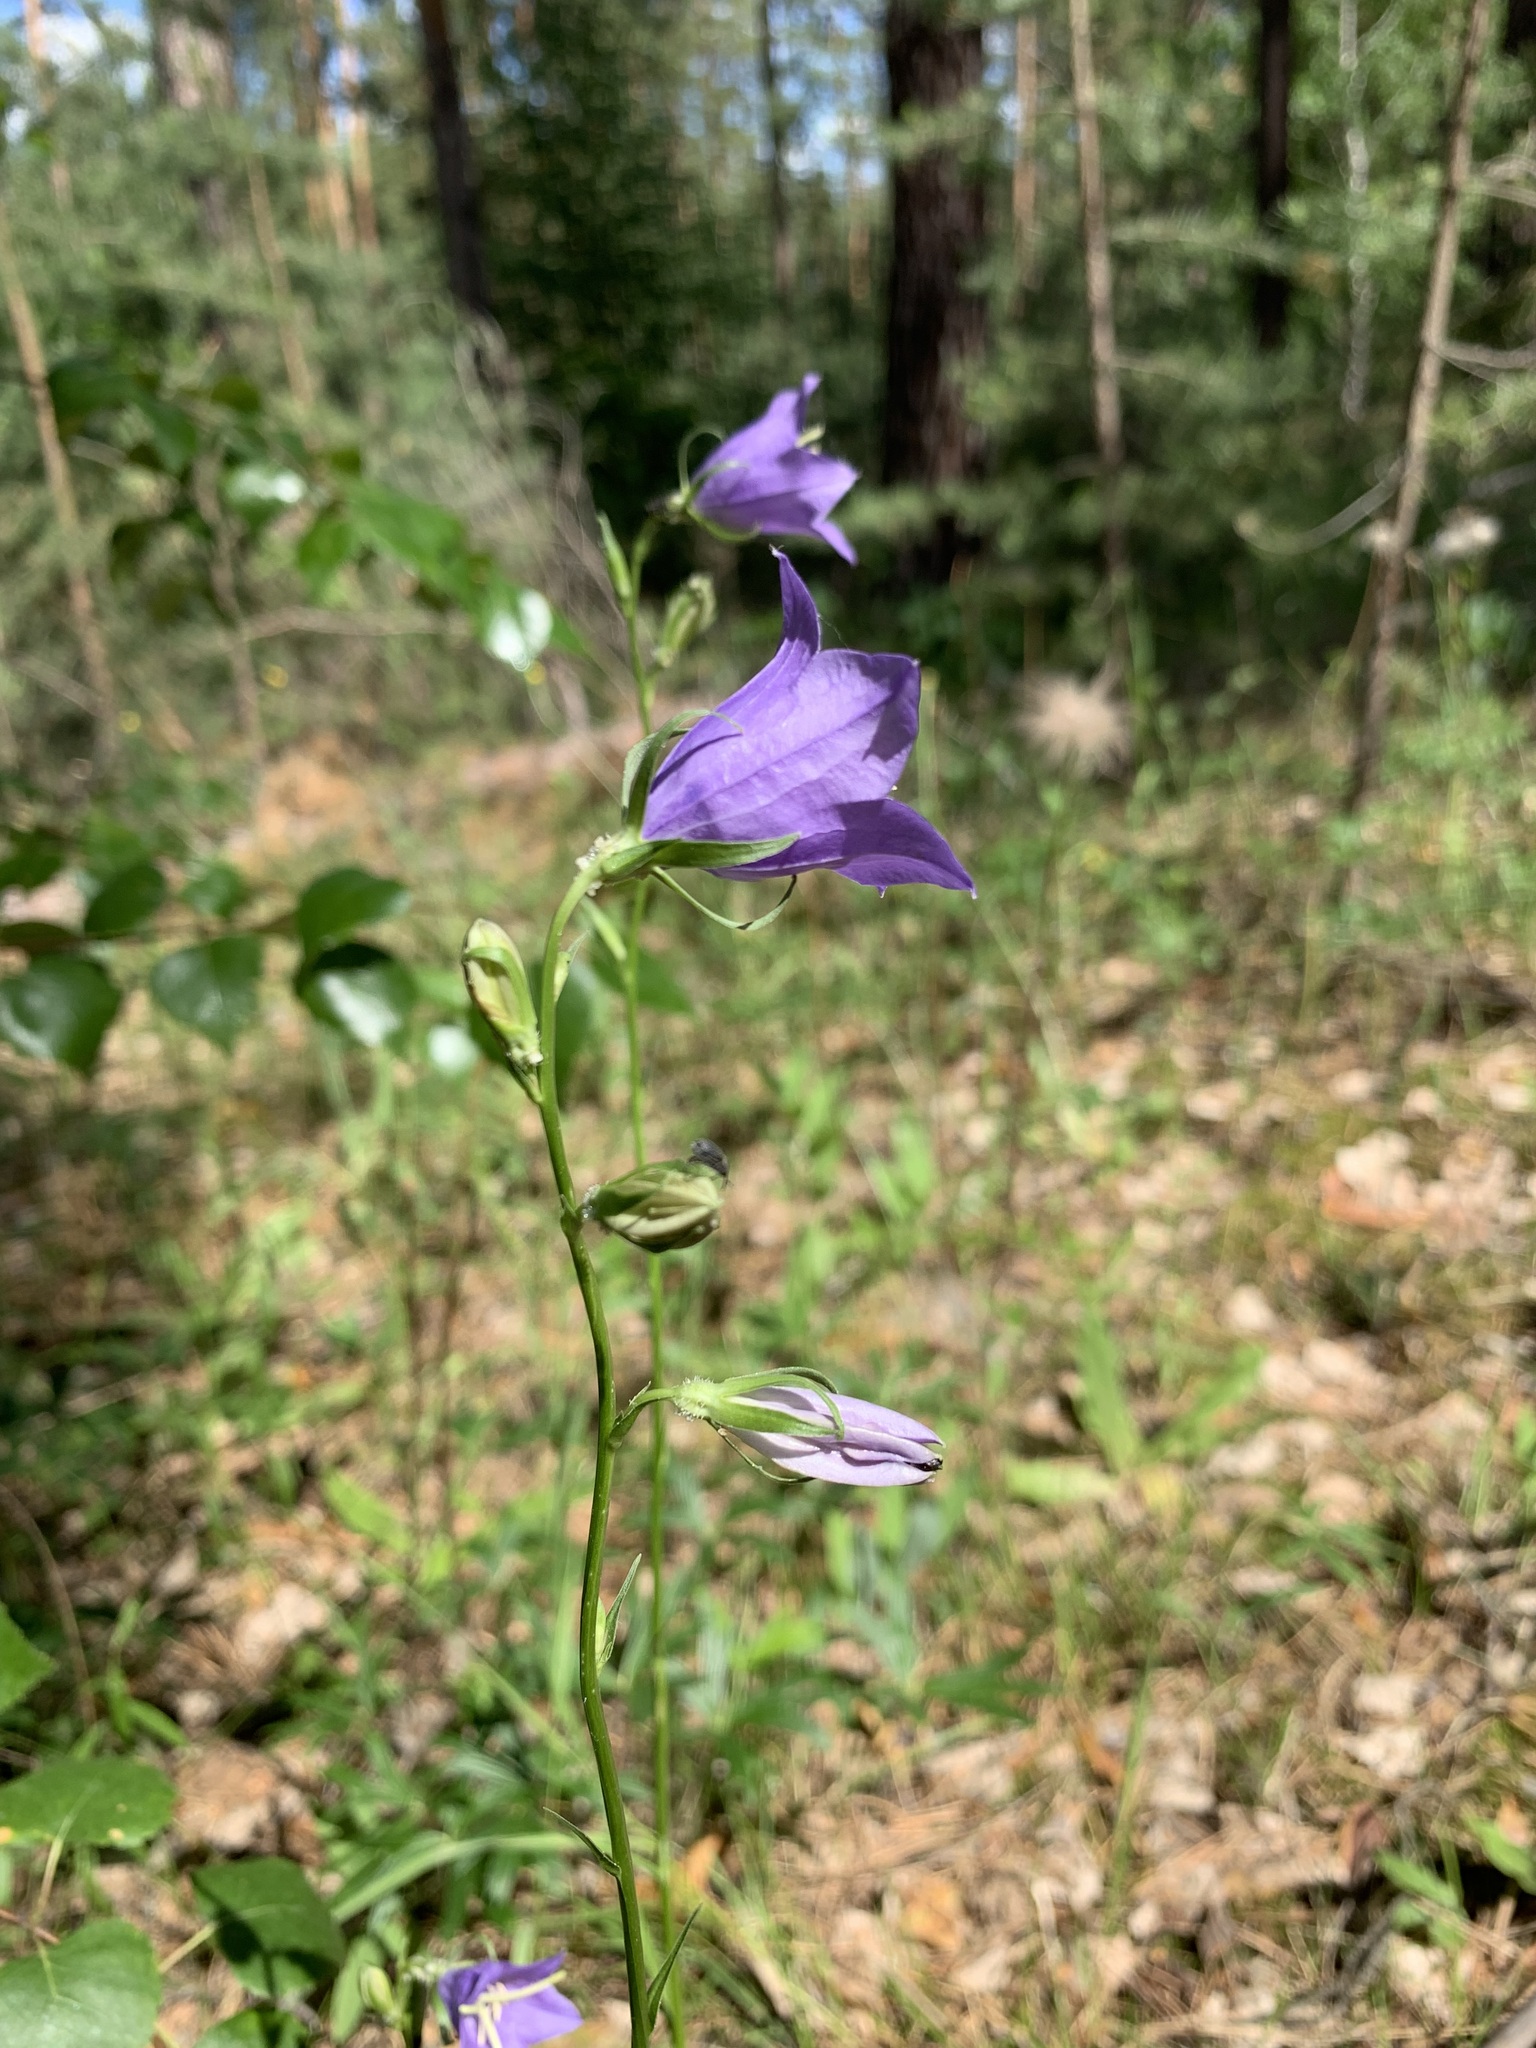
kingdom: Plantae
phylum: Tracheophyta
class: Magnoliopsida
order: Asterales
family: Campanulaceae
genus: Campanula
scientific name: Campanula persicifolia
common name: Peach-leaved bellflower
